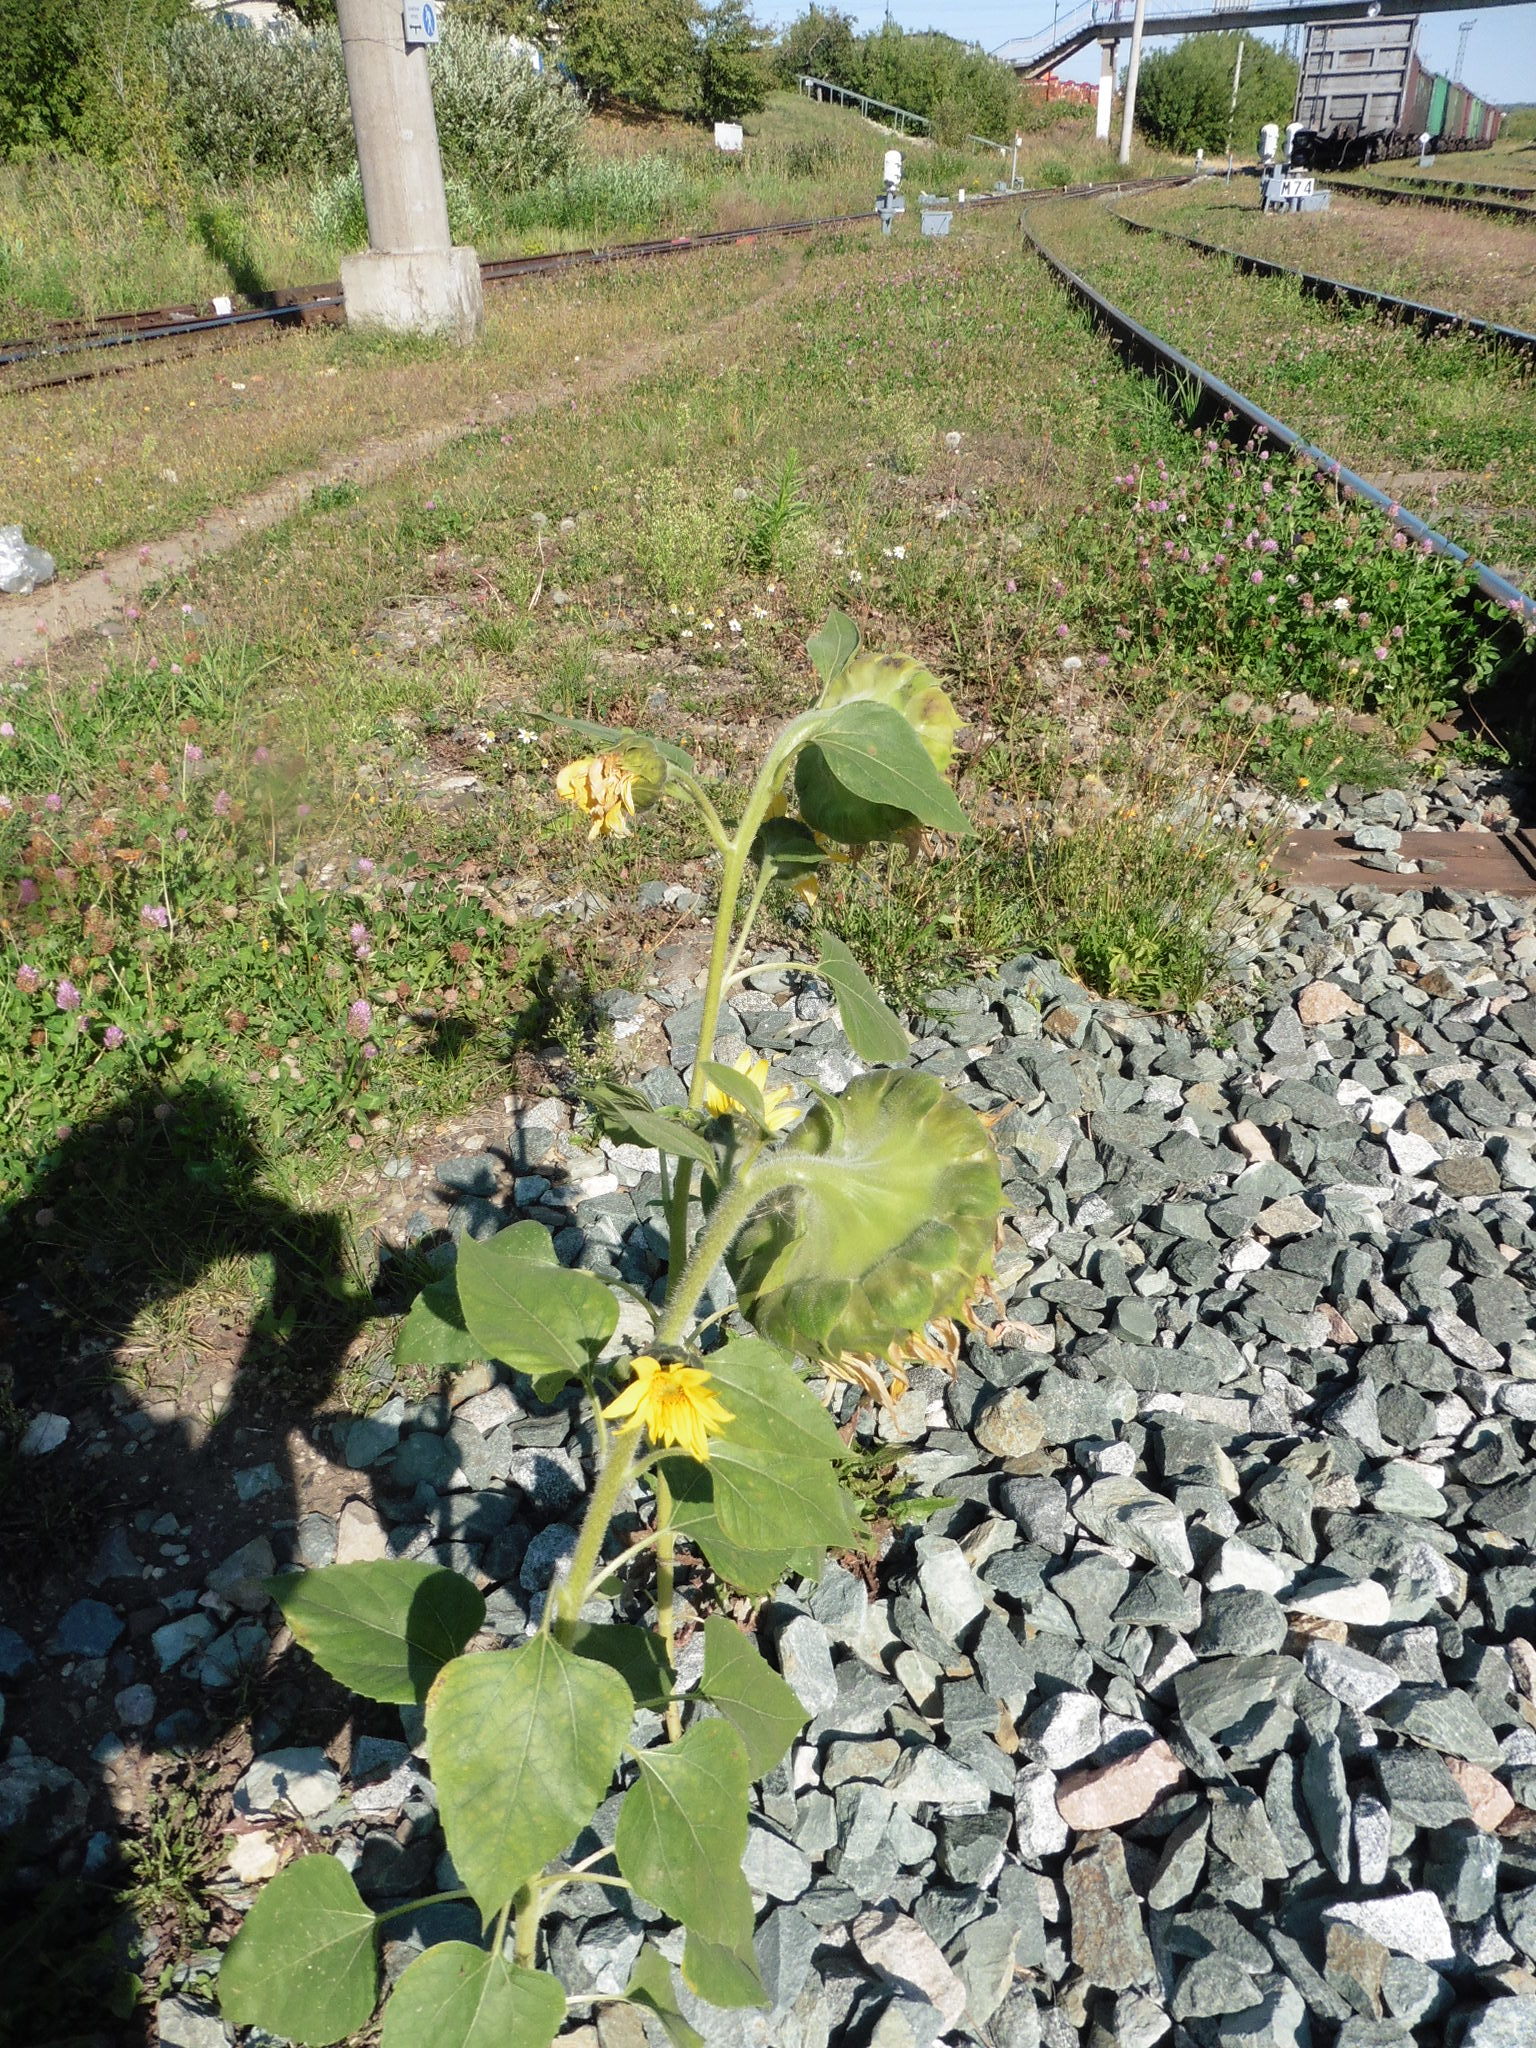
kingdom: Plantae
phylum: Tracheophyta
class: Magnoliopsida
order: Asterales
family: Asteraceae
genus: Helianthus
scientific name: Helianthus annuus
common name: Sunflower
